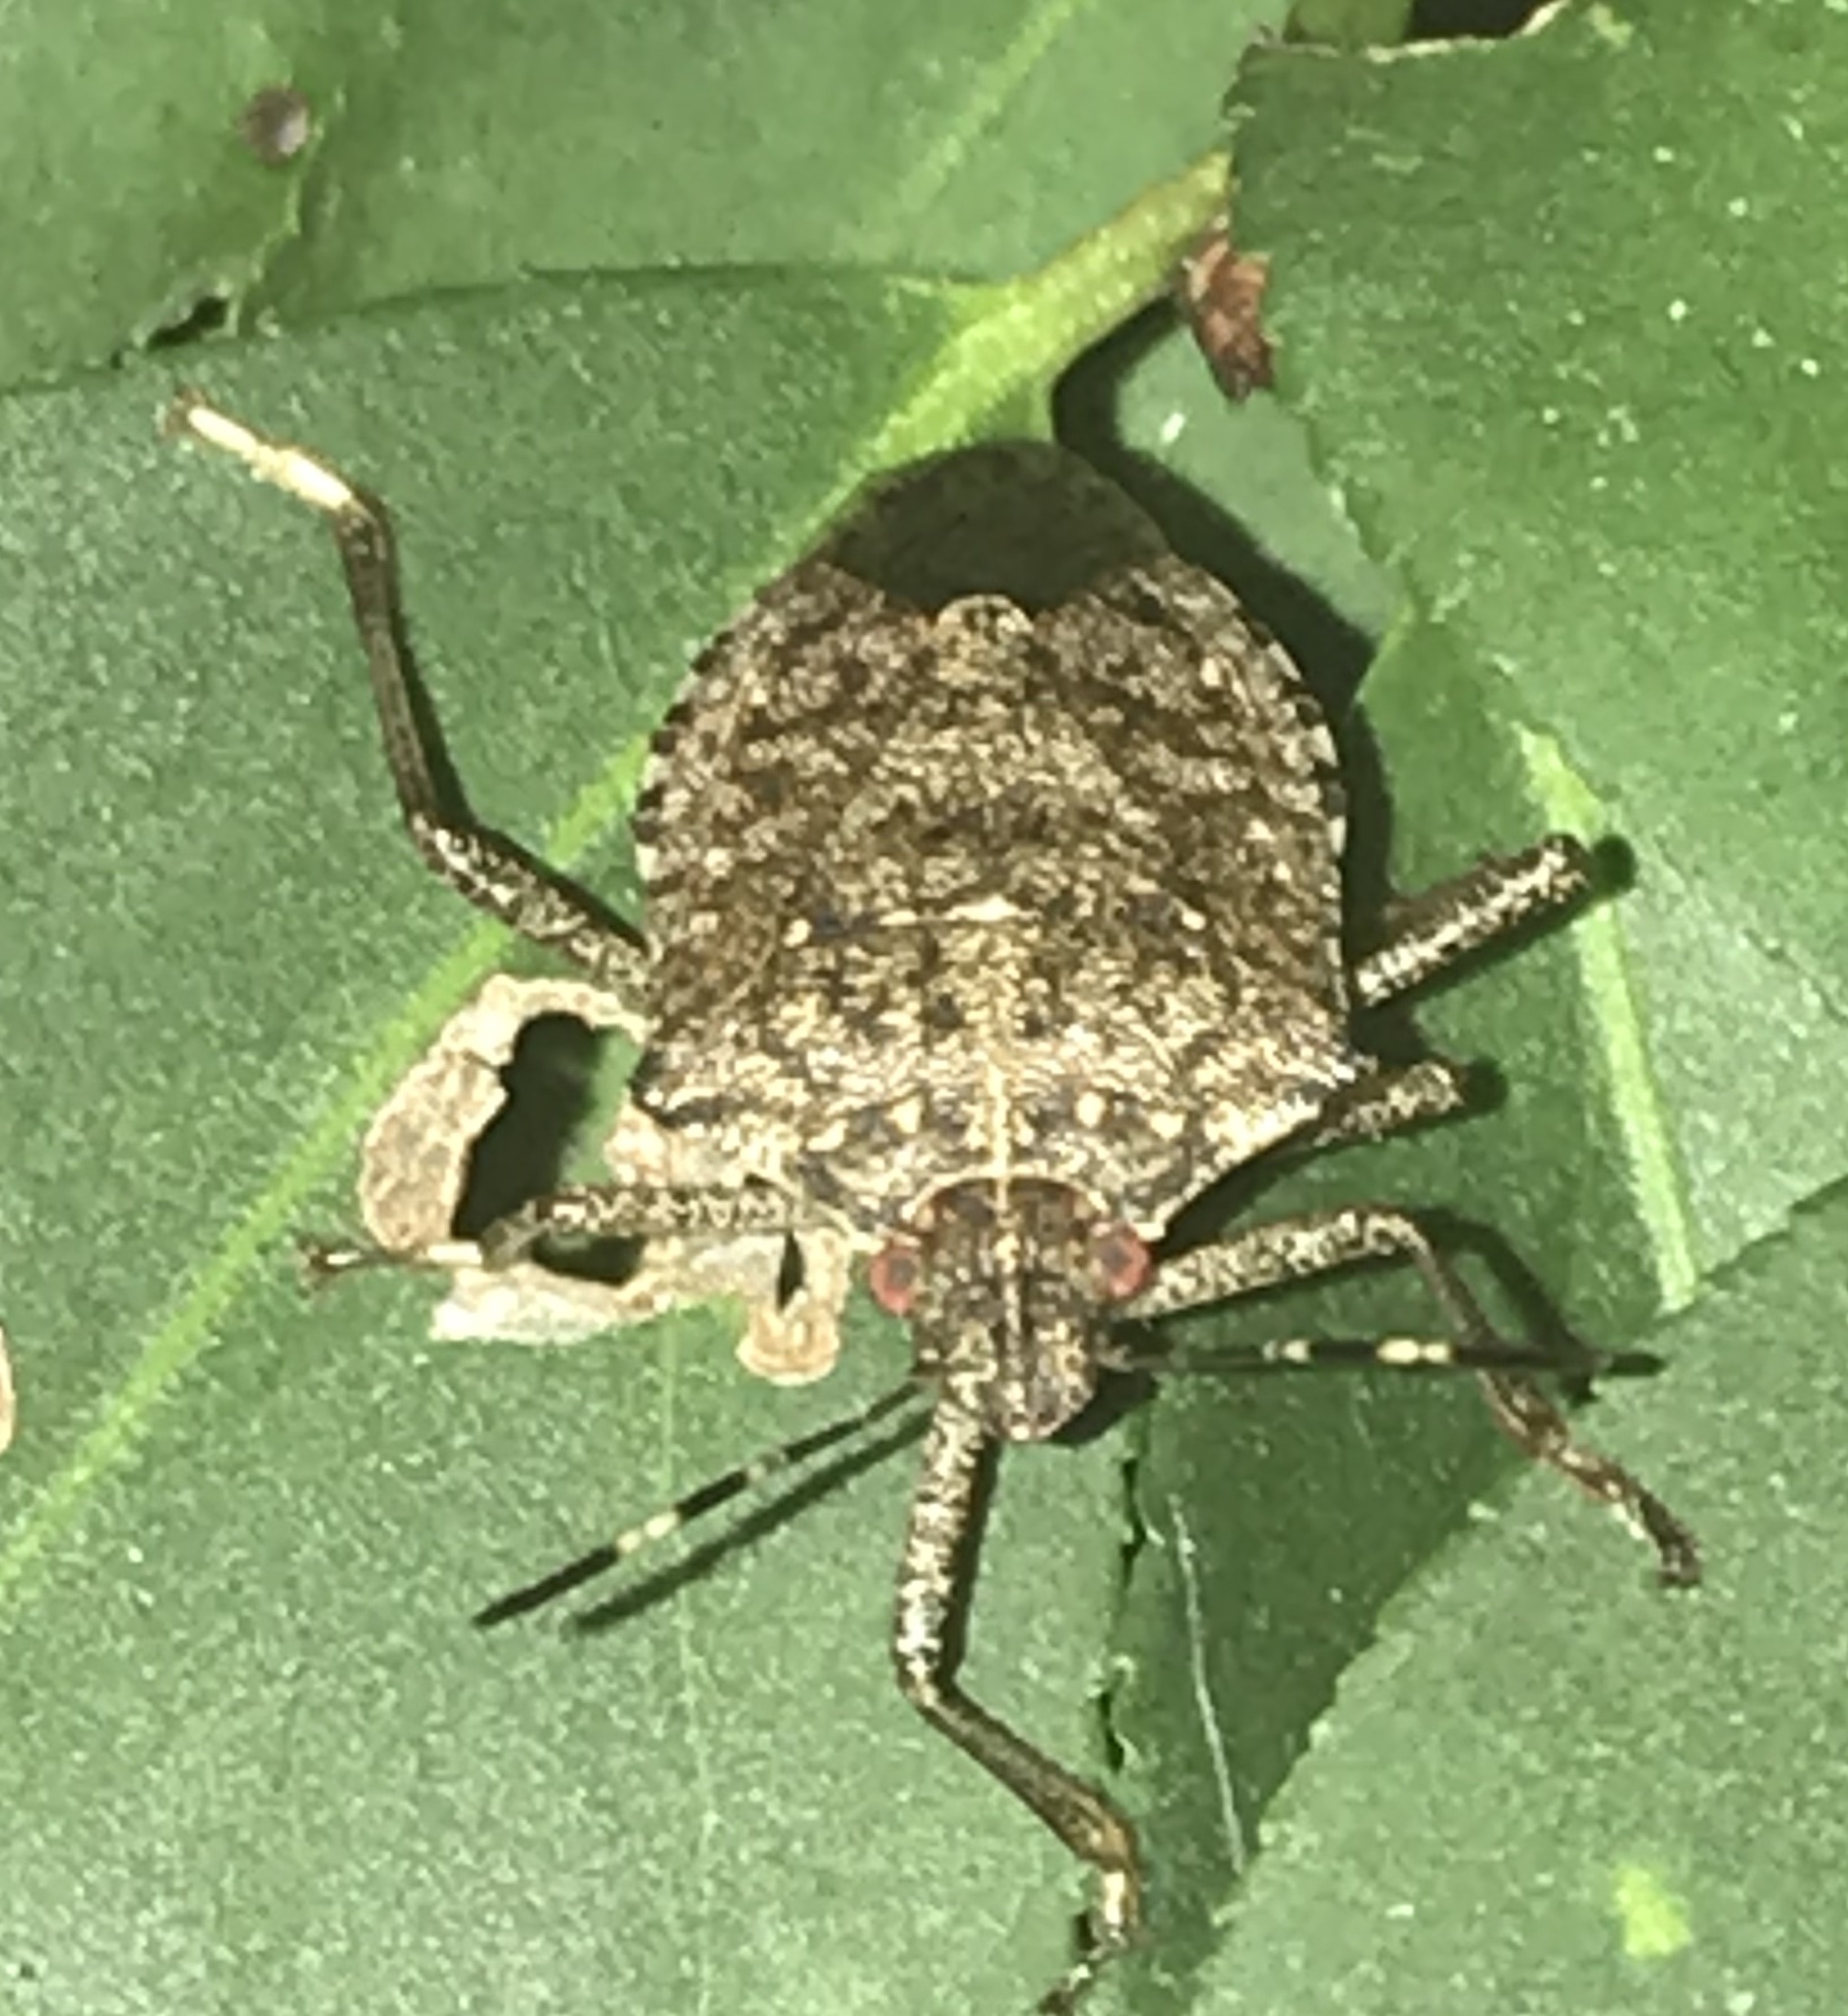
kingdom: Animalia
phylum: Arthropoda
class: Insecta
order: Hemiptera
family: Pentatomidae
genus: Halyomorpha
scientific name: Halyomorpha halys
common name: Brown marmorated stink bug
